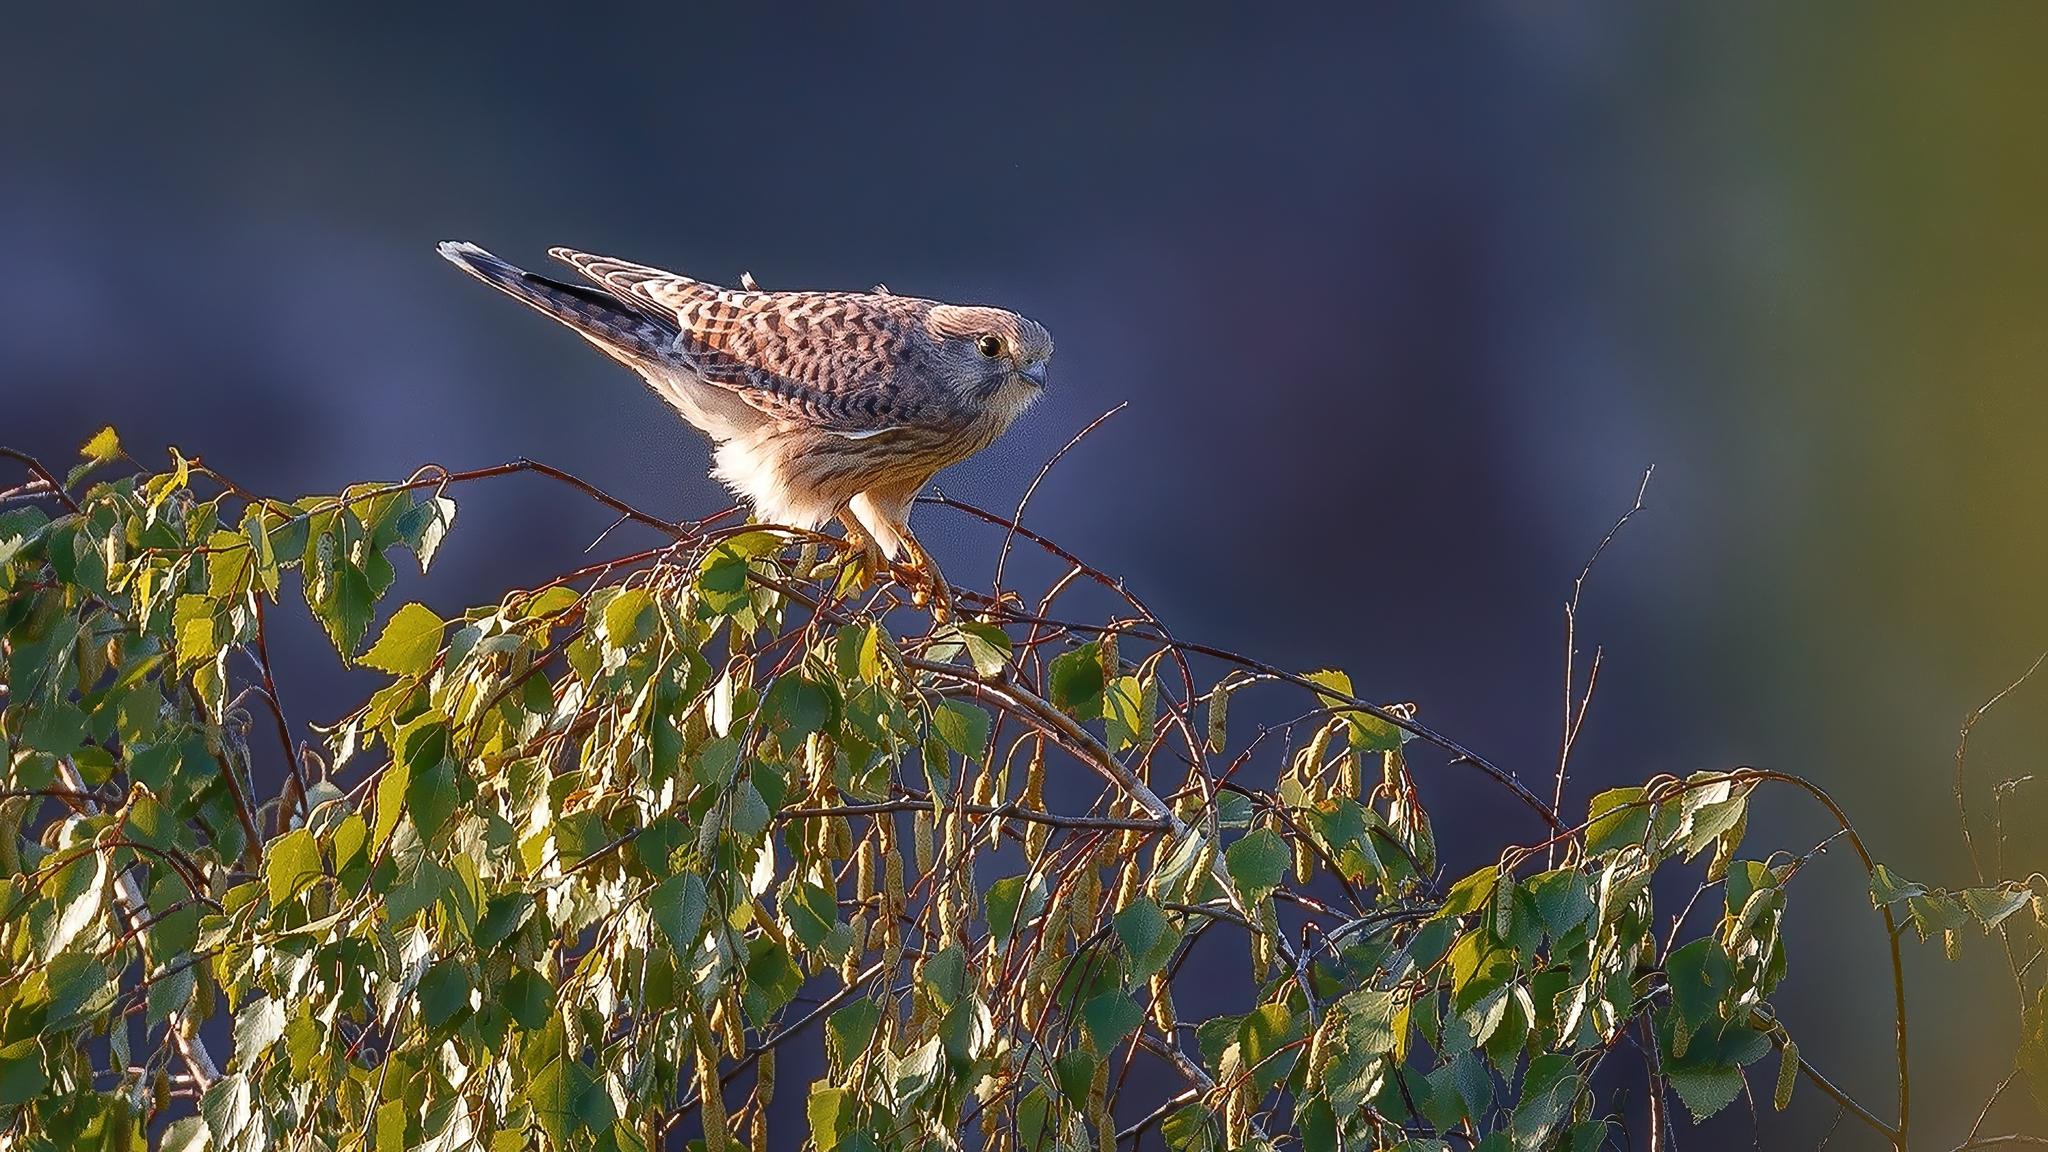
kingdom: Animalia
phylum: Chordata
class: Aves
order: Falconiformes
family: Falconidae
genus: Falco
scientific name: Falco tinnunculus
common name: Common kestrel
